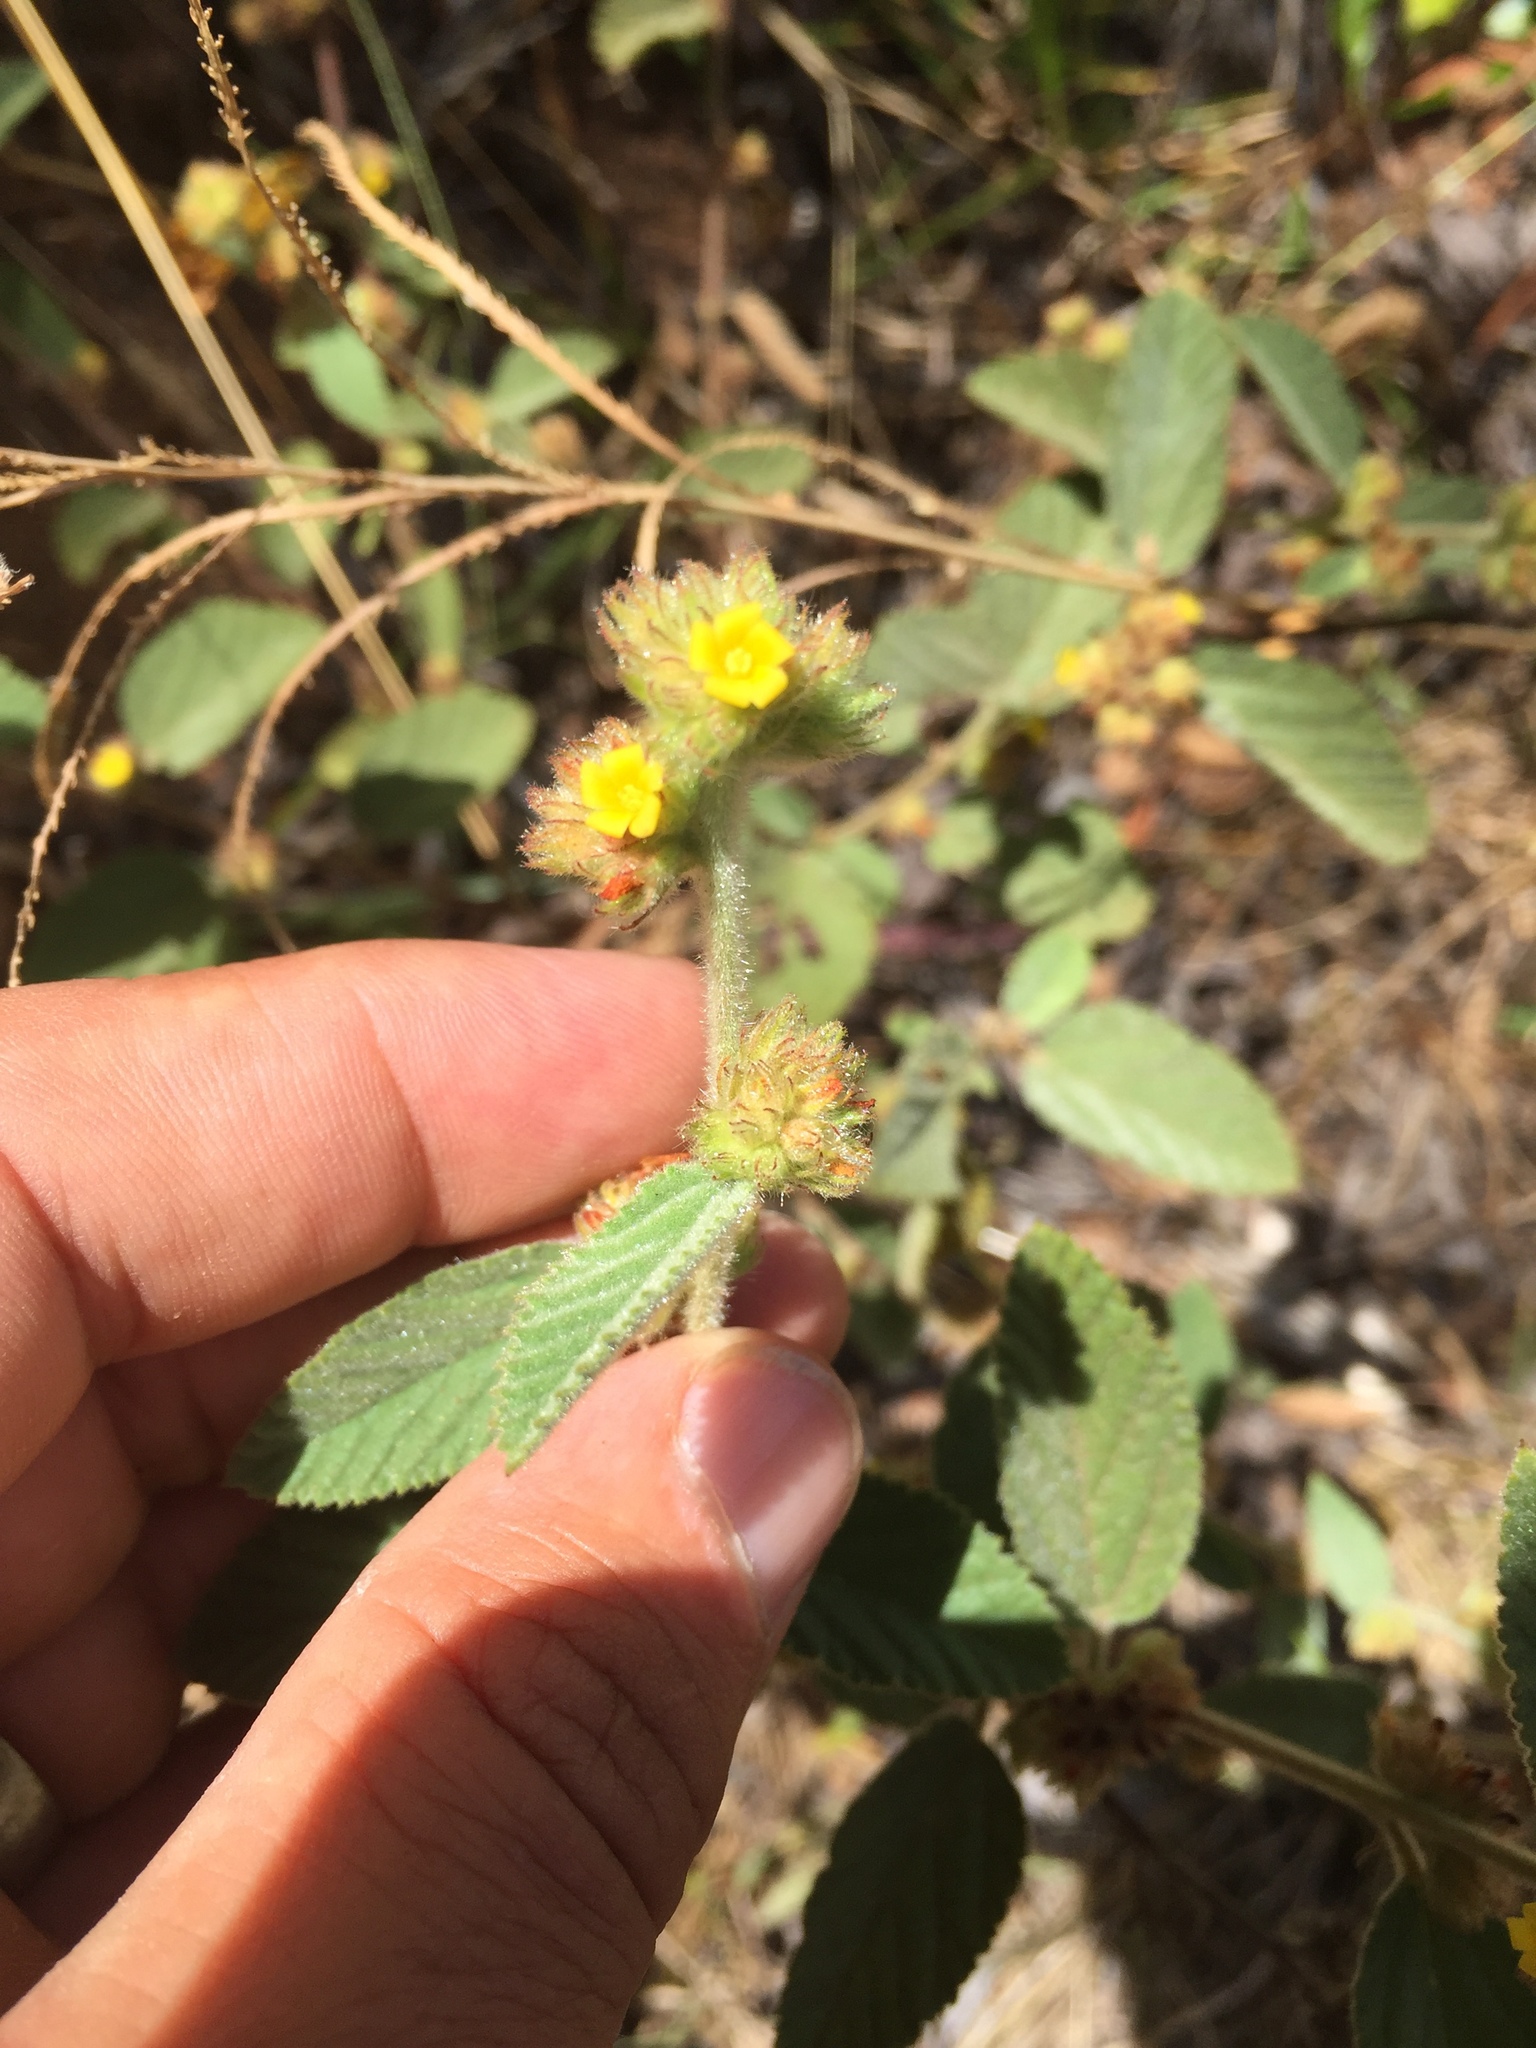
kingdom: Plantae
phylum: Tracheophyta
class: Magnoliopsida
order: Malvales
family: Malvaceae
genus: Waltheria
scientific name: Waltheria indica
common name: Leather-coat
